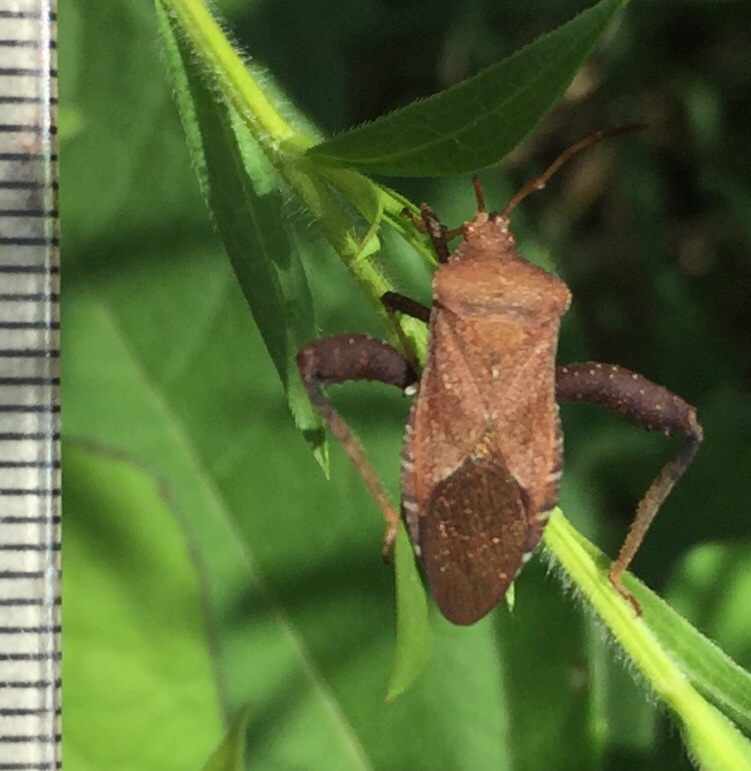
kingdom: Animalia
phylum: Arthropoda
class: Insecta
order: Hemiptera
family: Coreidae
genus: Euthochtha
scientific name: Euthochtha galeator
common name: Helmeted squash bug
